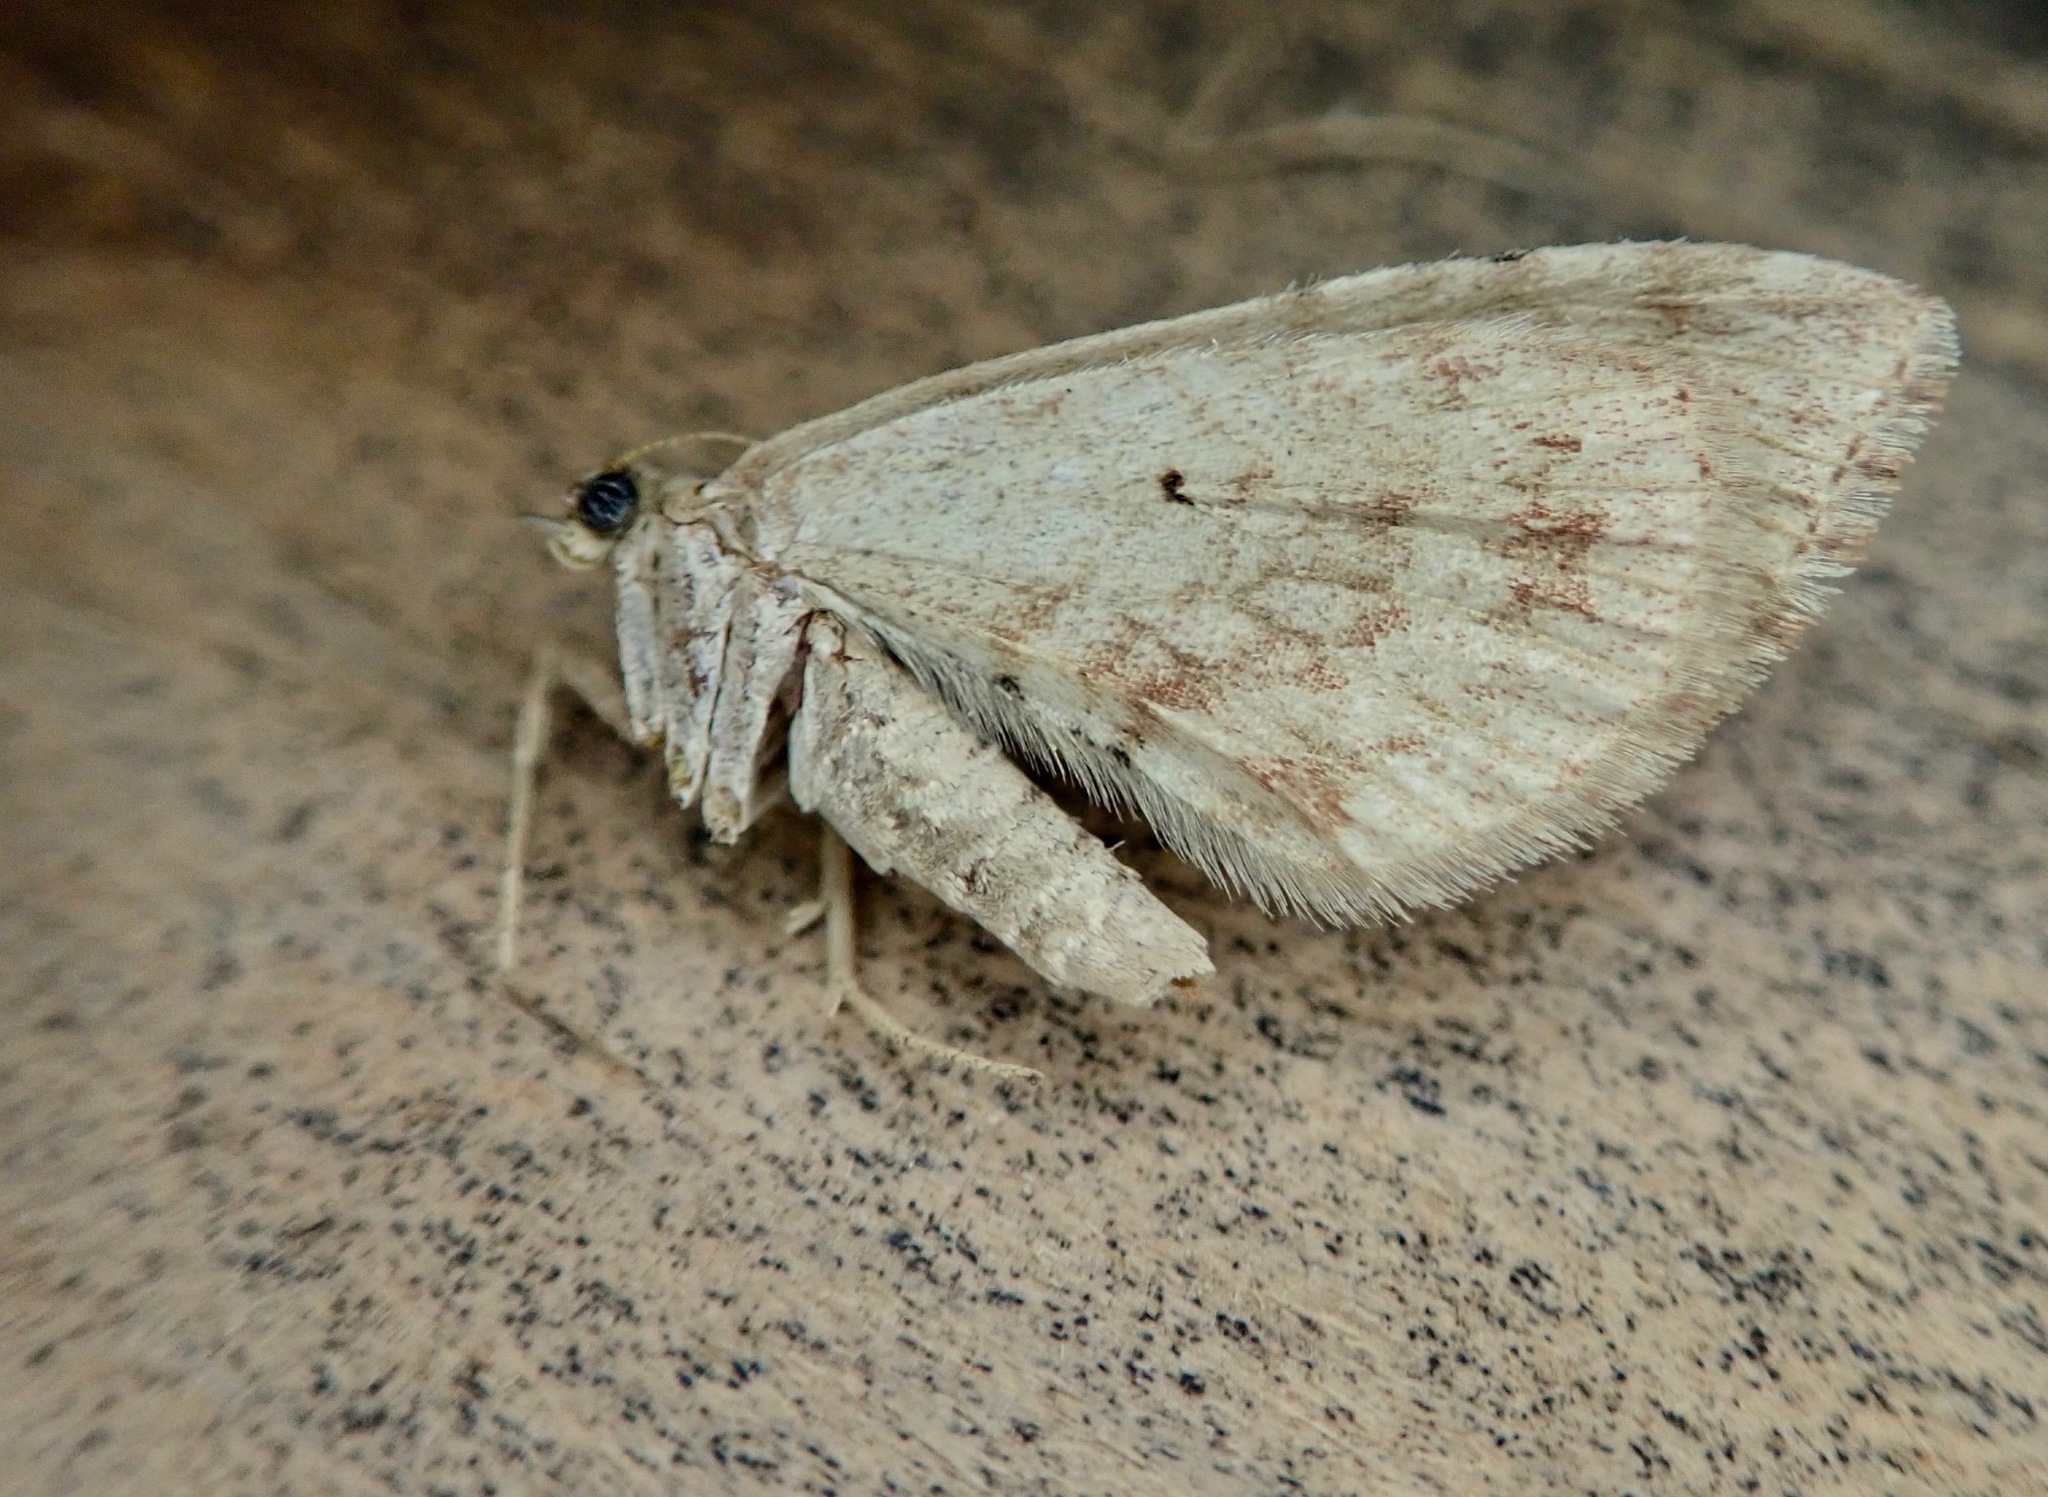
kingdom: Animalia
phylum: Arthropoda
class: Insecta
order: Lepidoptera
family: Geometridae
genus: Asaphodes
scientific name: Asaphodes aegrota
